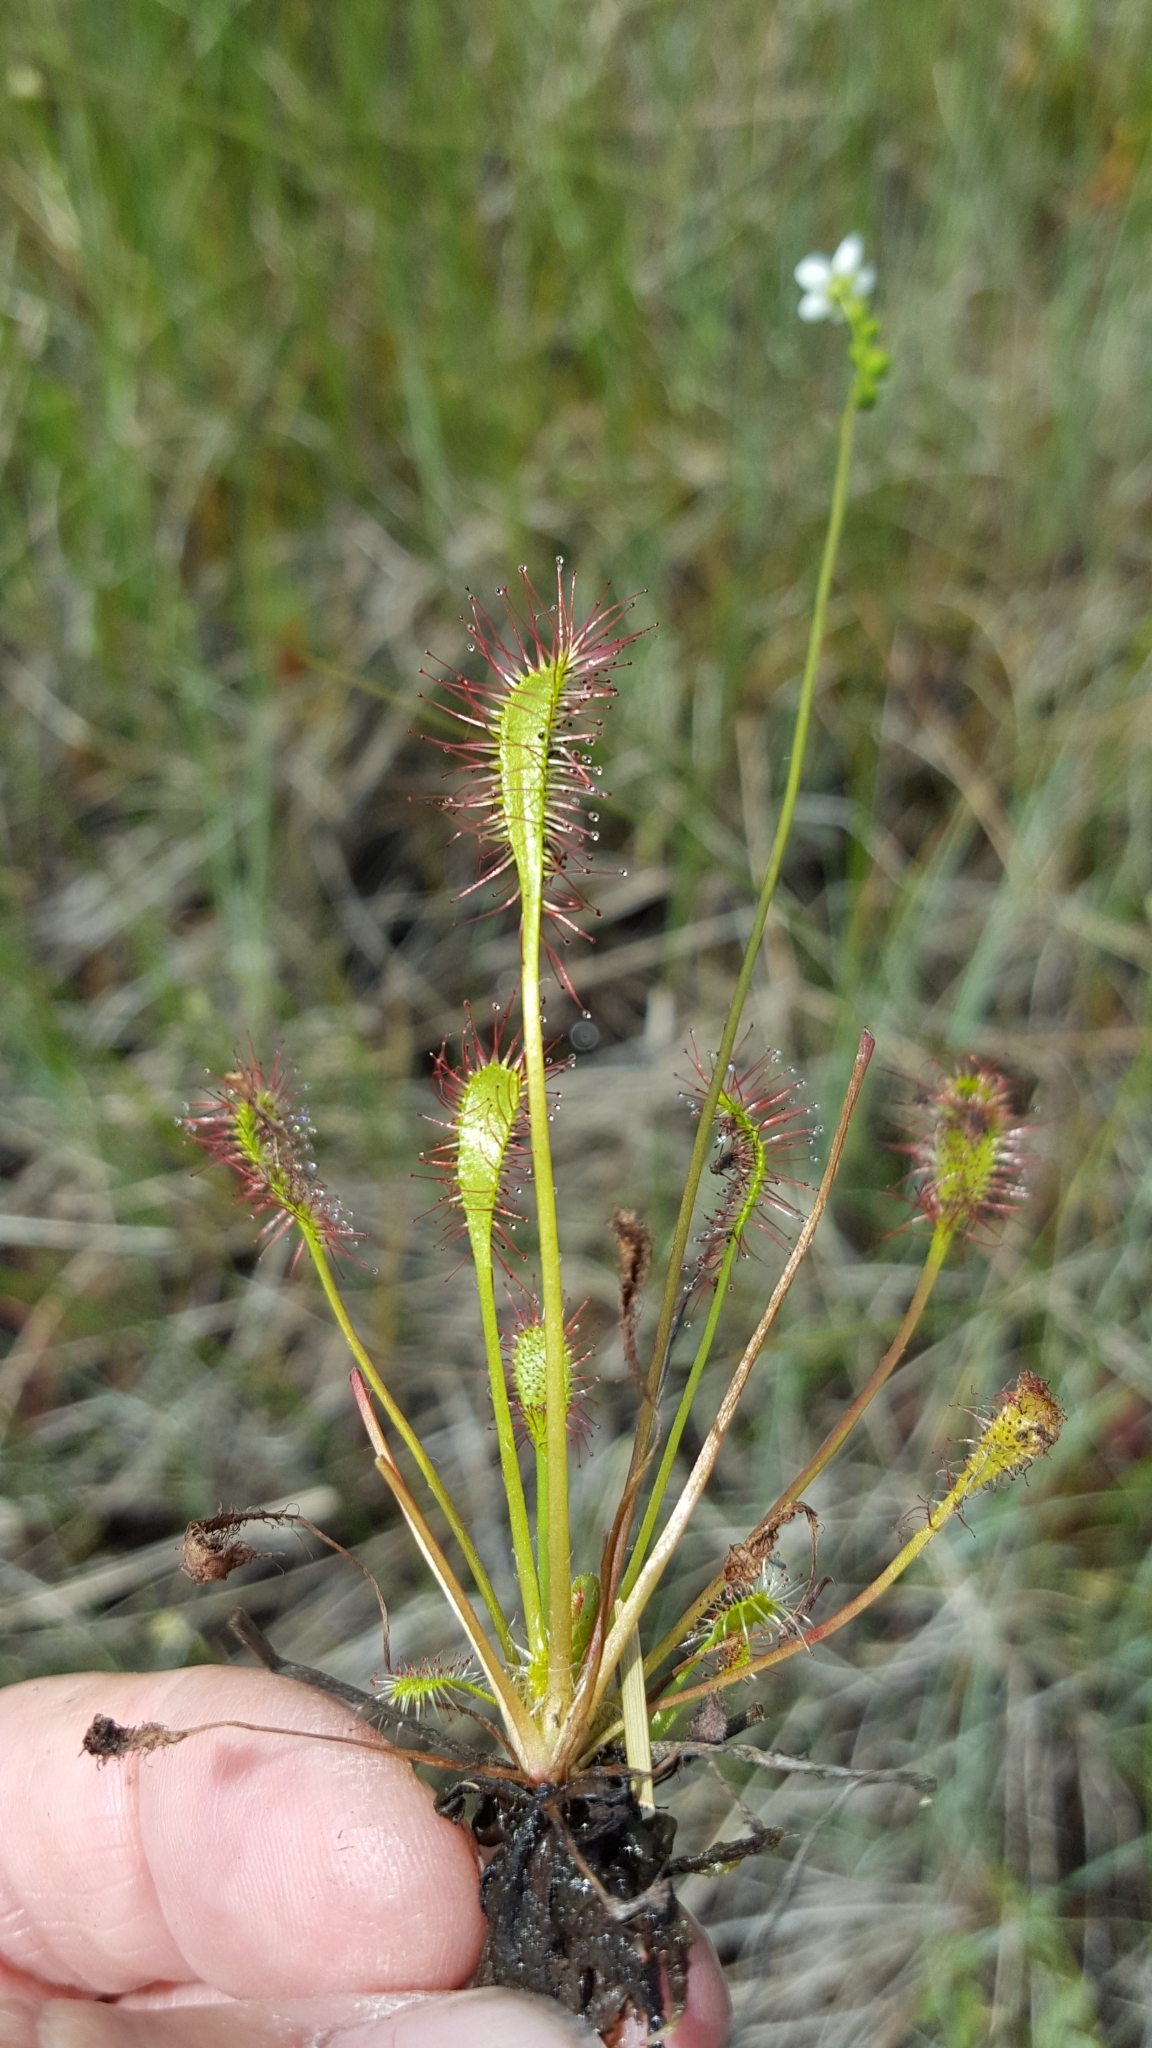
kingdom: Plantae
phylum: Tracheophyta
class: Magnoliopsida
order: Caryophyllales
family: Droseraceae
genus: Drosera
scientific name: Drosera anglica
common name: Great sundew
